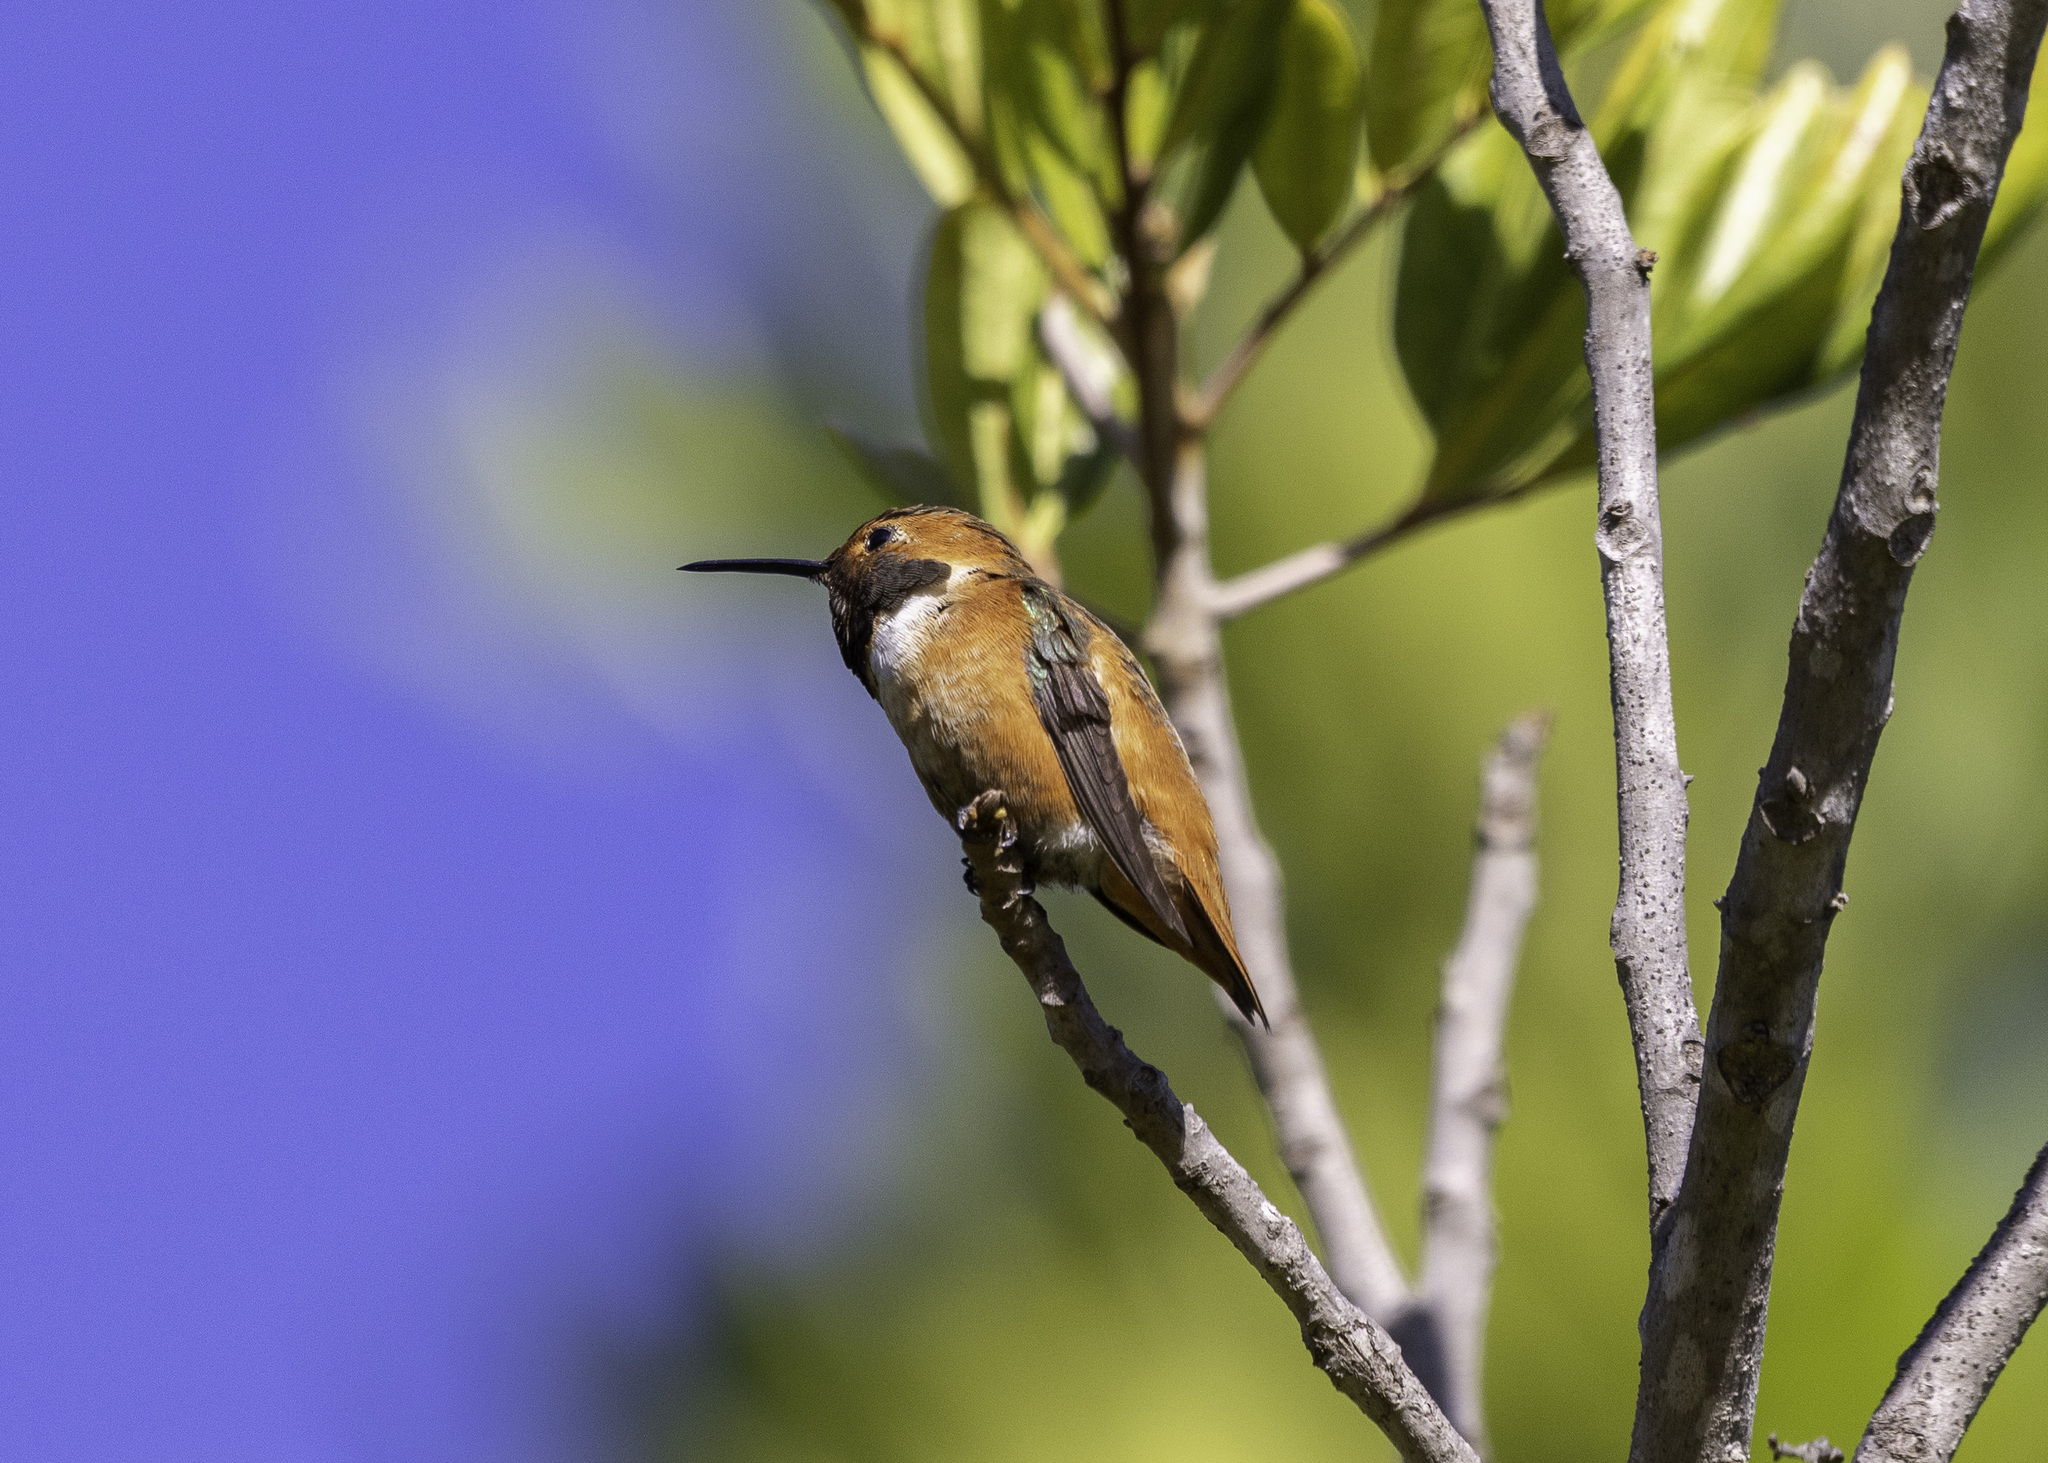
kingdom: Animalia
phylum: Chordata
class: Aves
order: Apodiformes
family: Trochilidae
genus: Selasphorus
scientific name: Selasphorus sasin
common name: Allen's hummingbird
